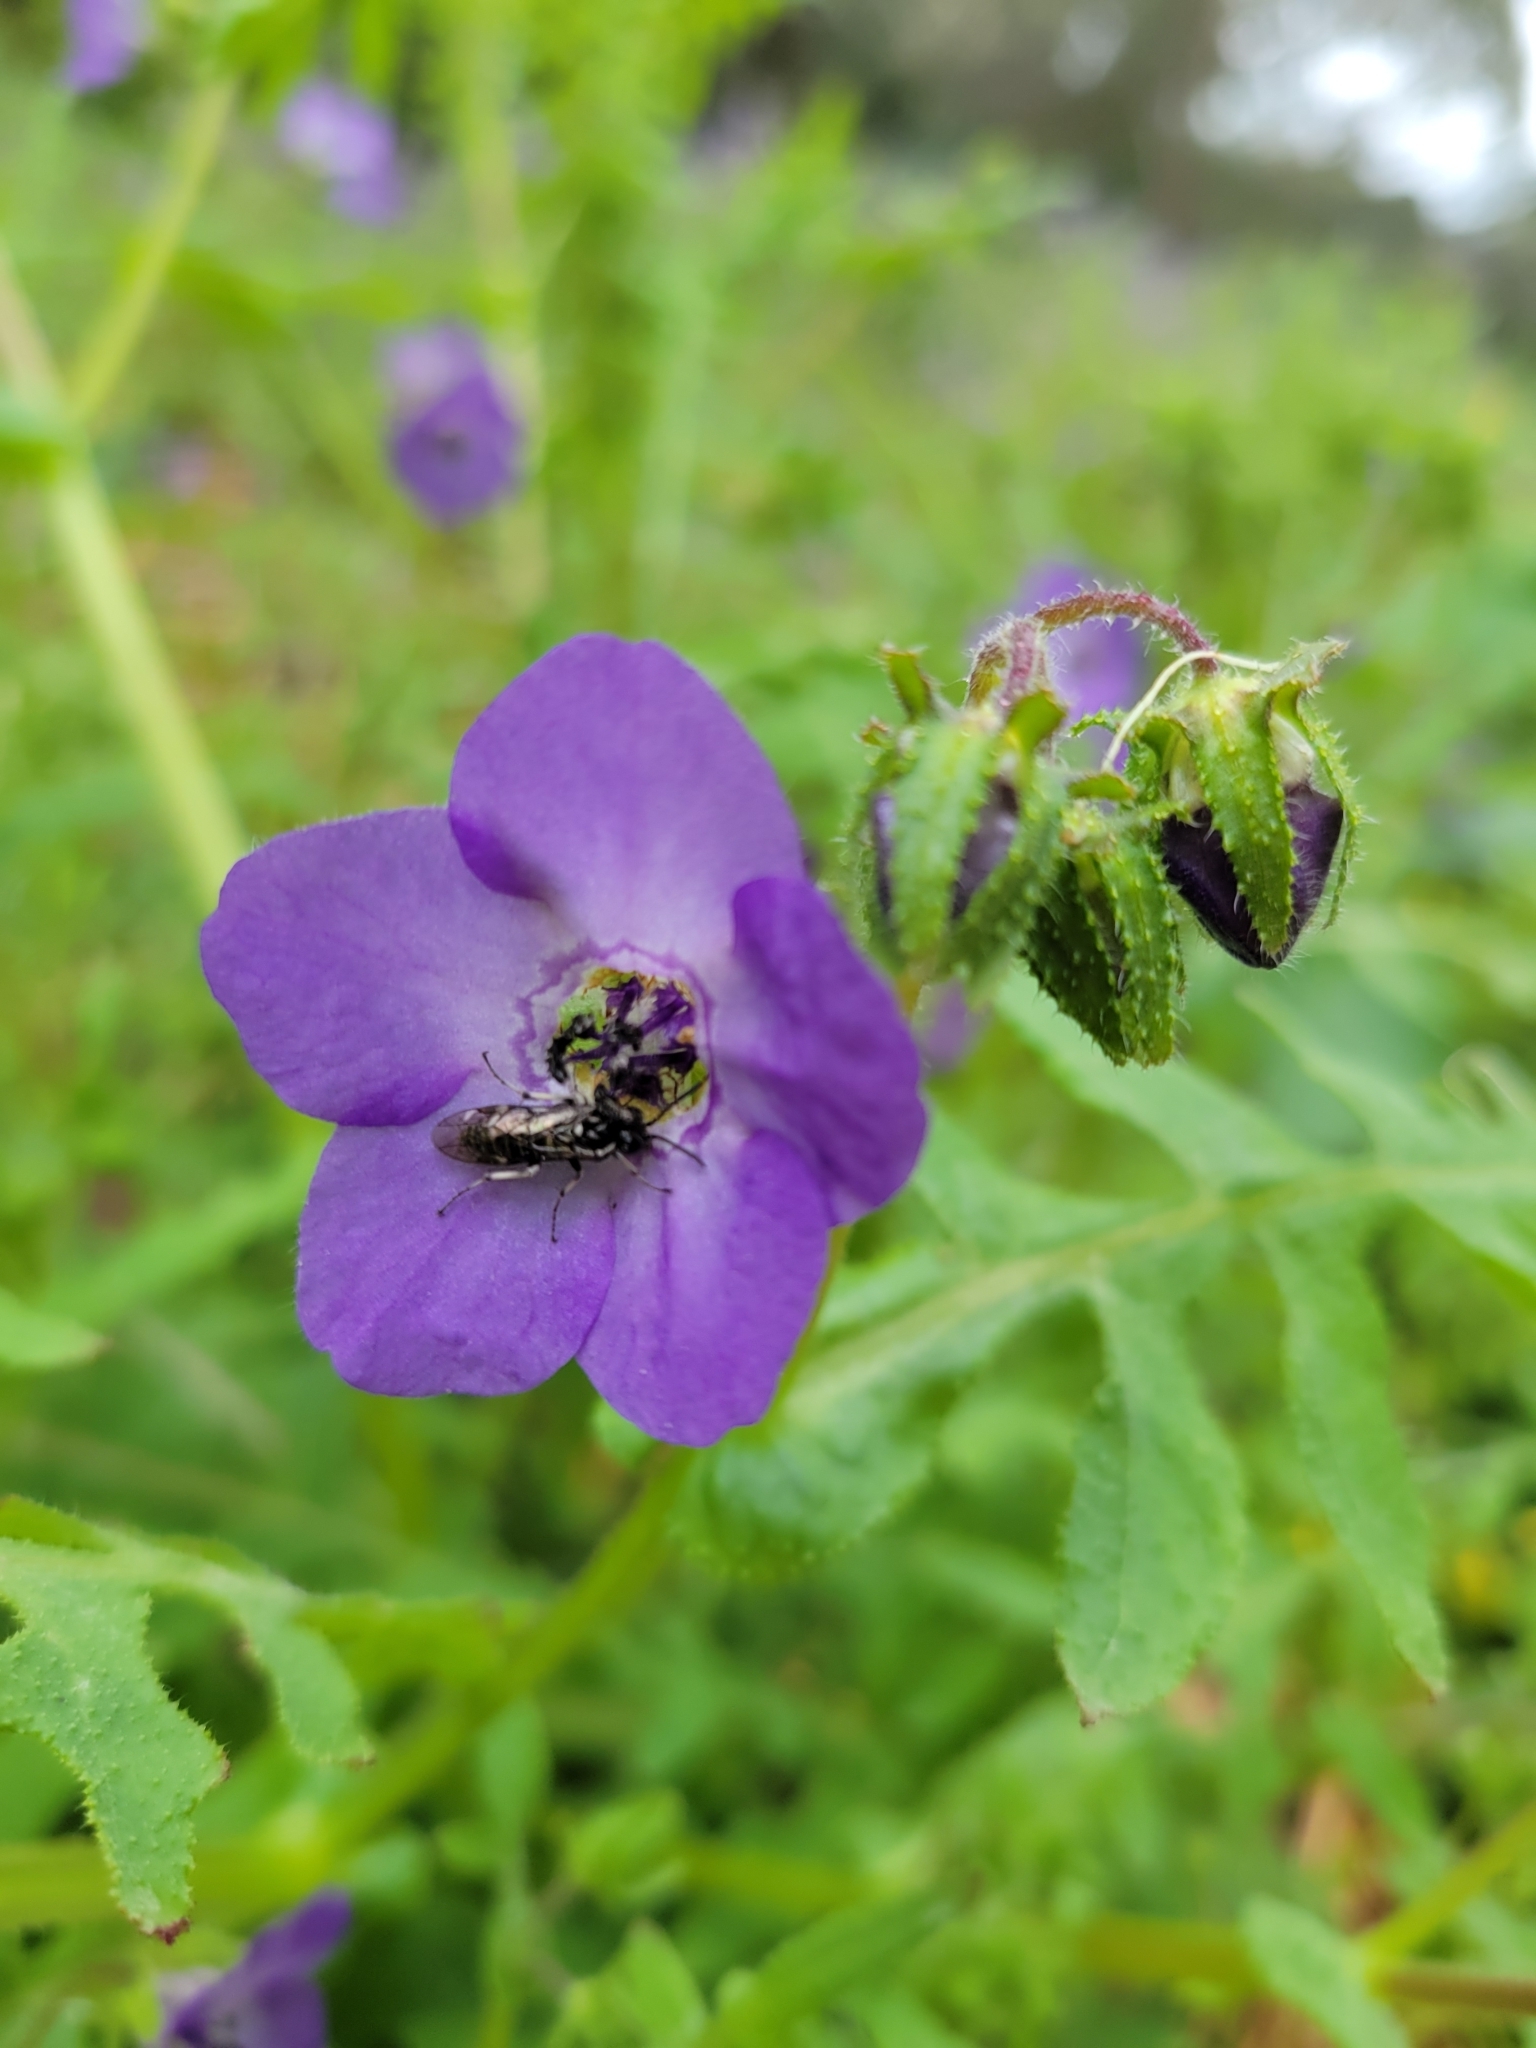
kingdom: Plantae
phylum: Tracheophyta
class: Magnoliopsida
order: Boraginales
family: Hydrophyllaceae
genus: Pholistoma
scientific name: Pholistoma auritum
